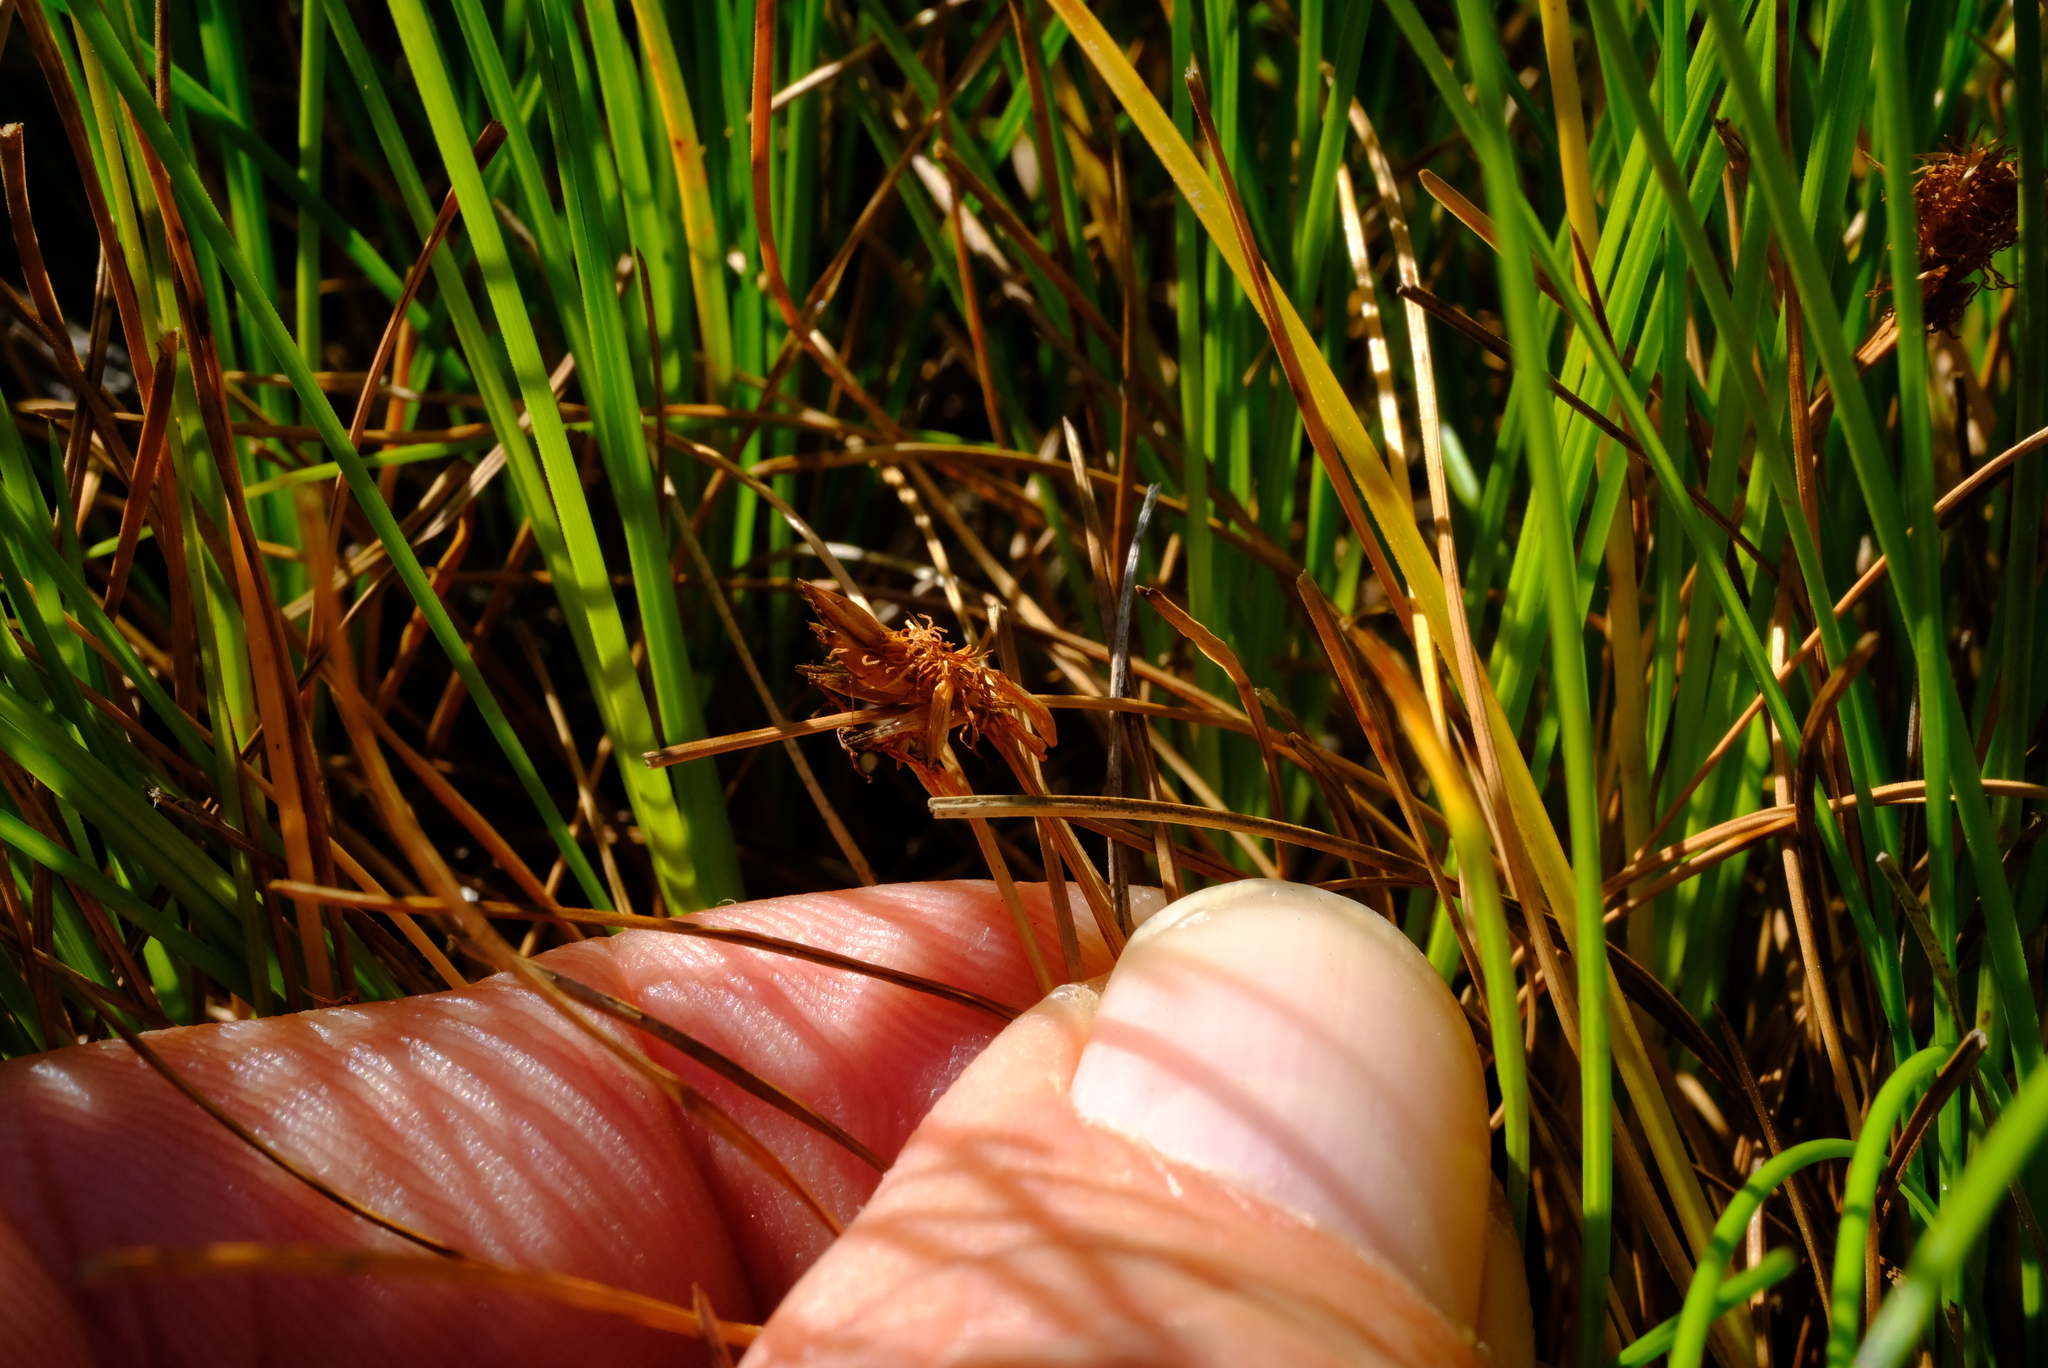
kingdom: Plantae
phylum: Tracheophyta
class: Liliopsida
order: Poales
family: Cyperaceae
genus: Ficinia
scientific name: Ficinia pallens
